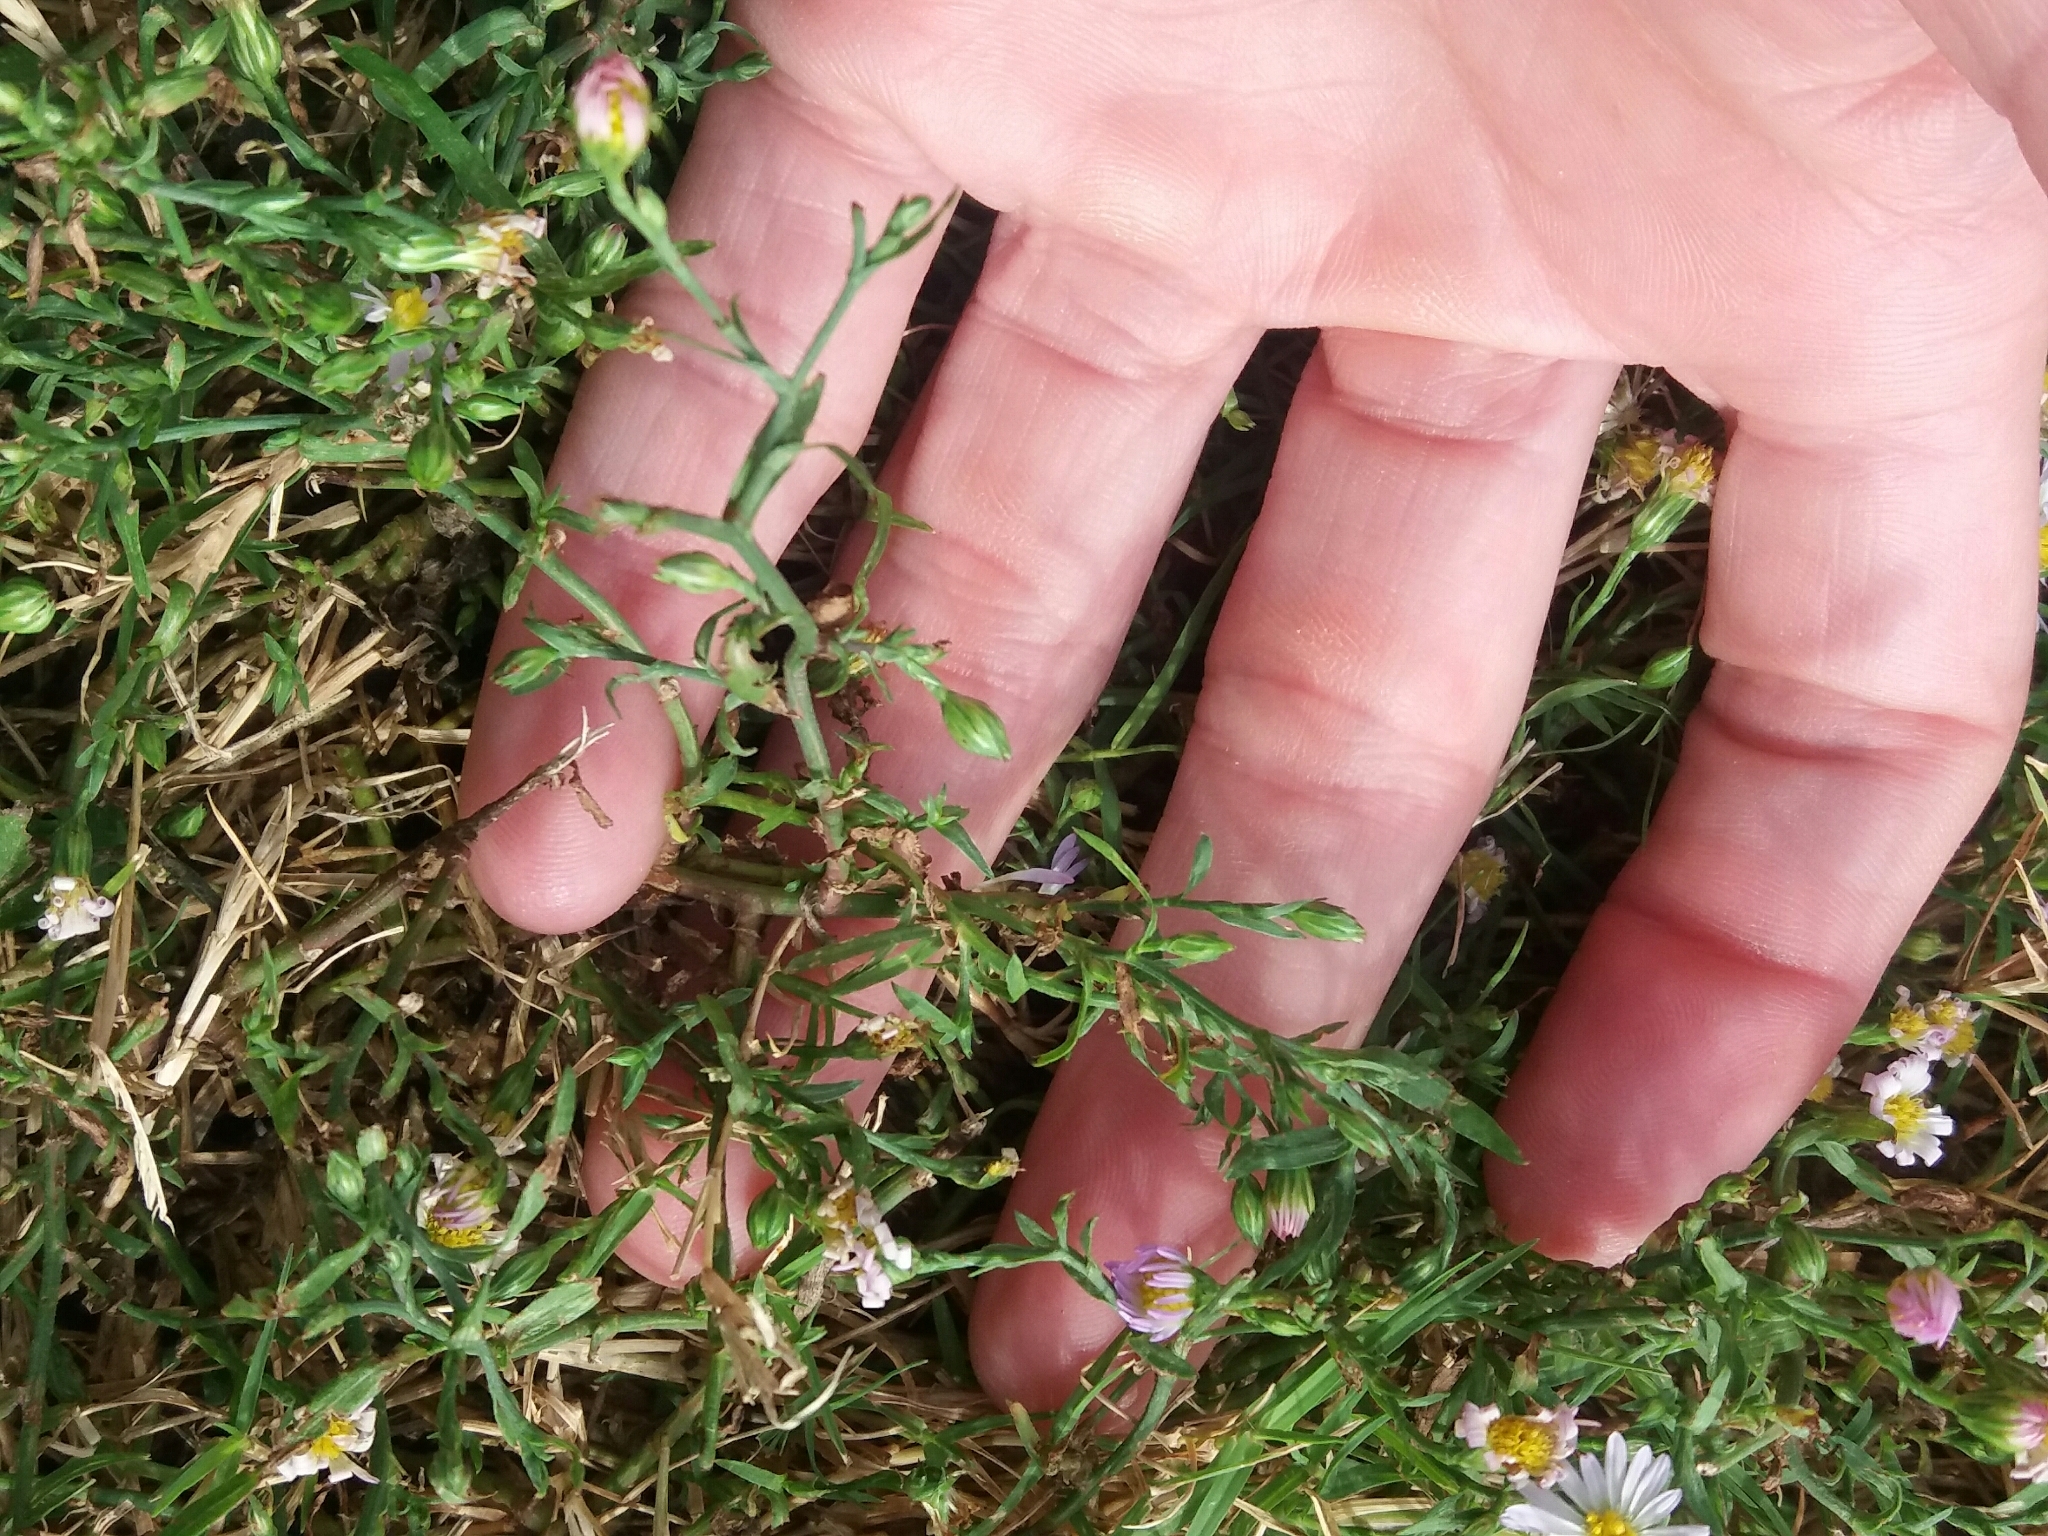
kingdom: Plantae
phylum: Tracheophyta
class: Magnoliopsida
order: Asterales
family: Asteraceae
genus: Symphyotrichum
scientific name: Symphyotrichum dumosum
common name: Bushy aster
